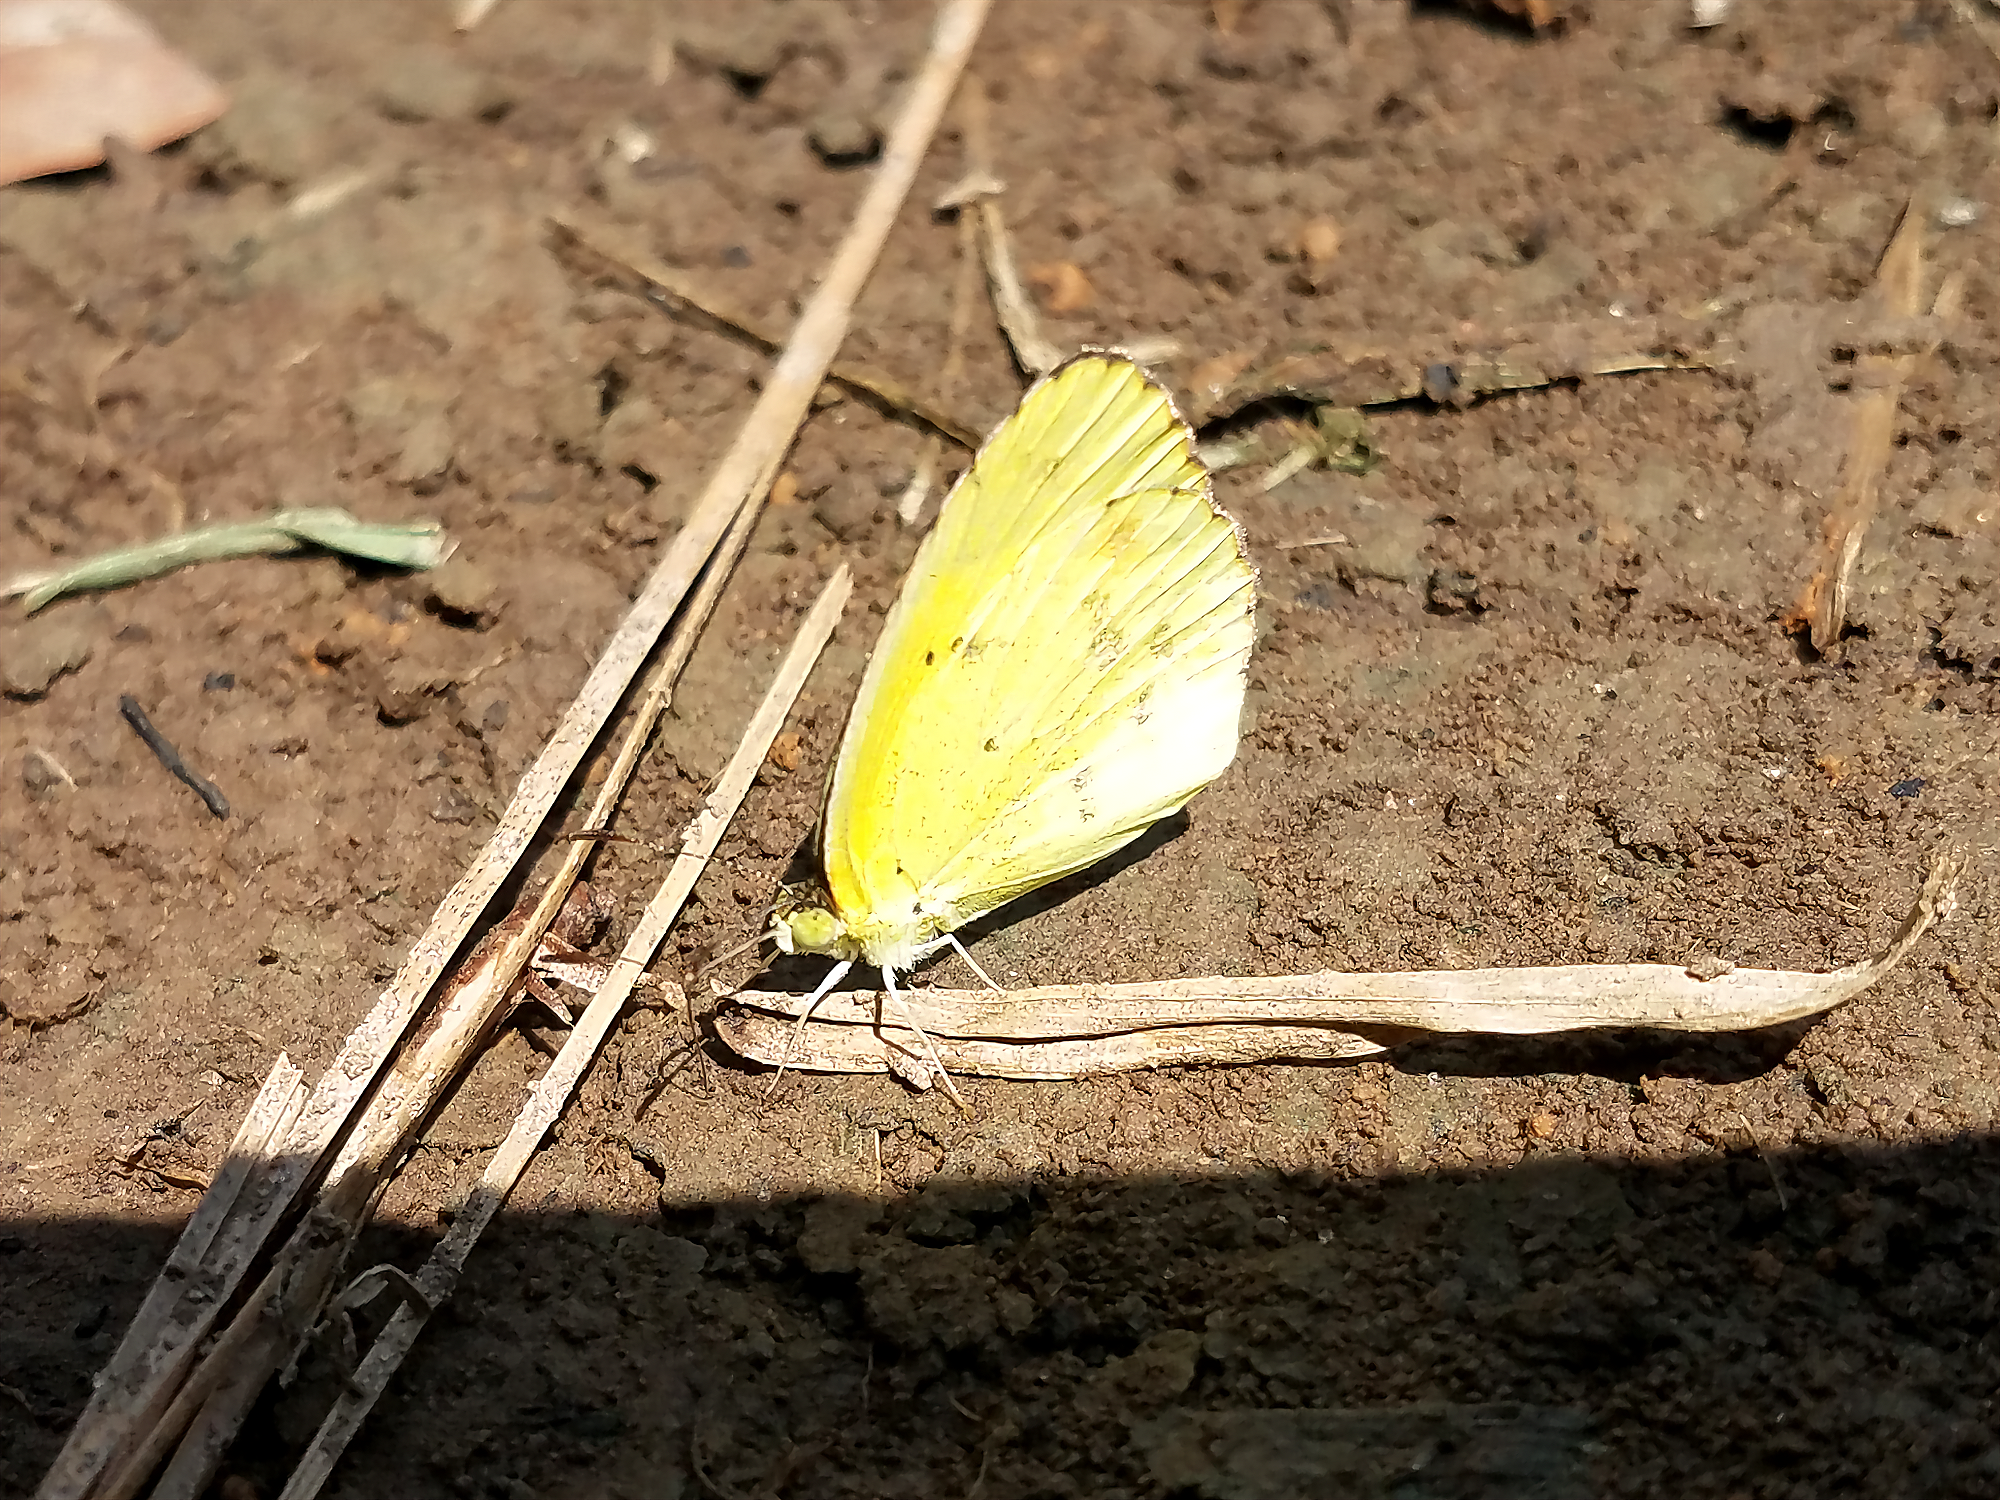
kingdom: Animalia
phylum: Arthropoda
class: Insecta
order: Lepidoptera
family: Pieridae
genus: Pyrisitia
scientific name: Pyrisitia lisa
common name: Little yellow
